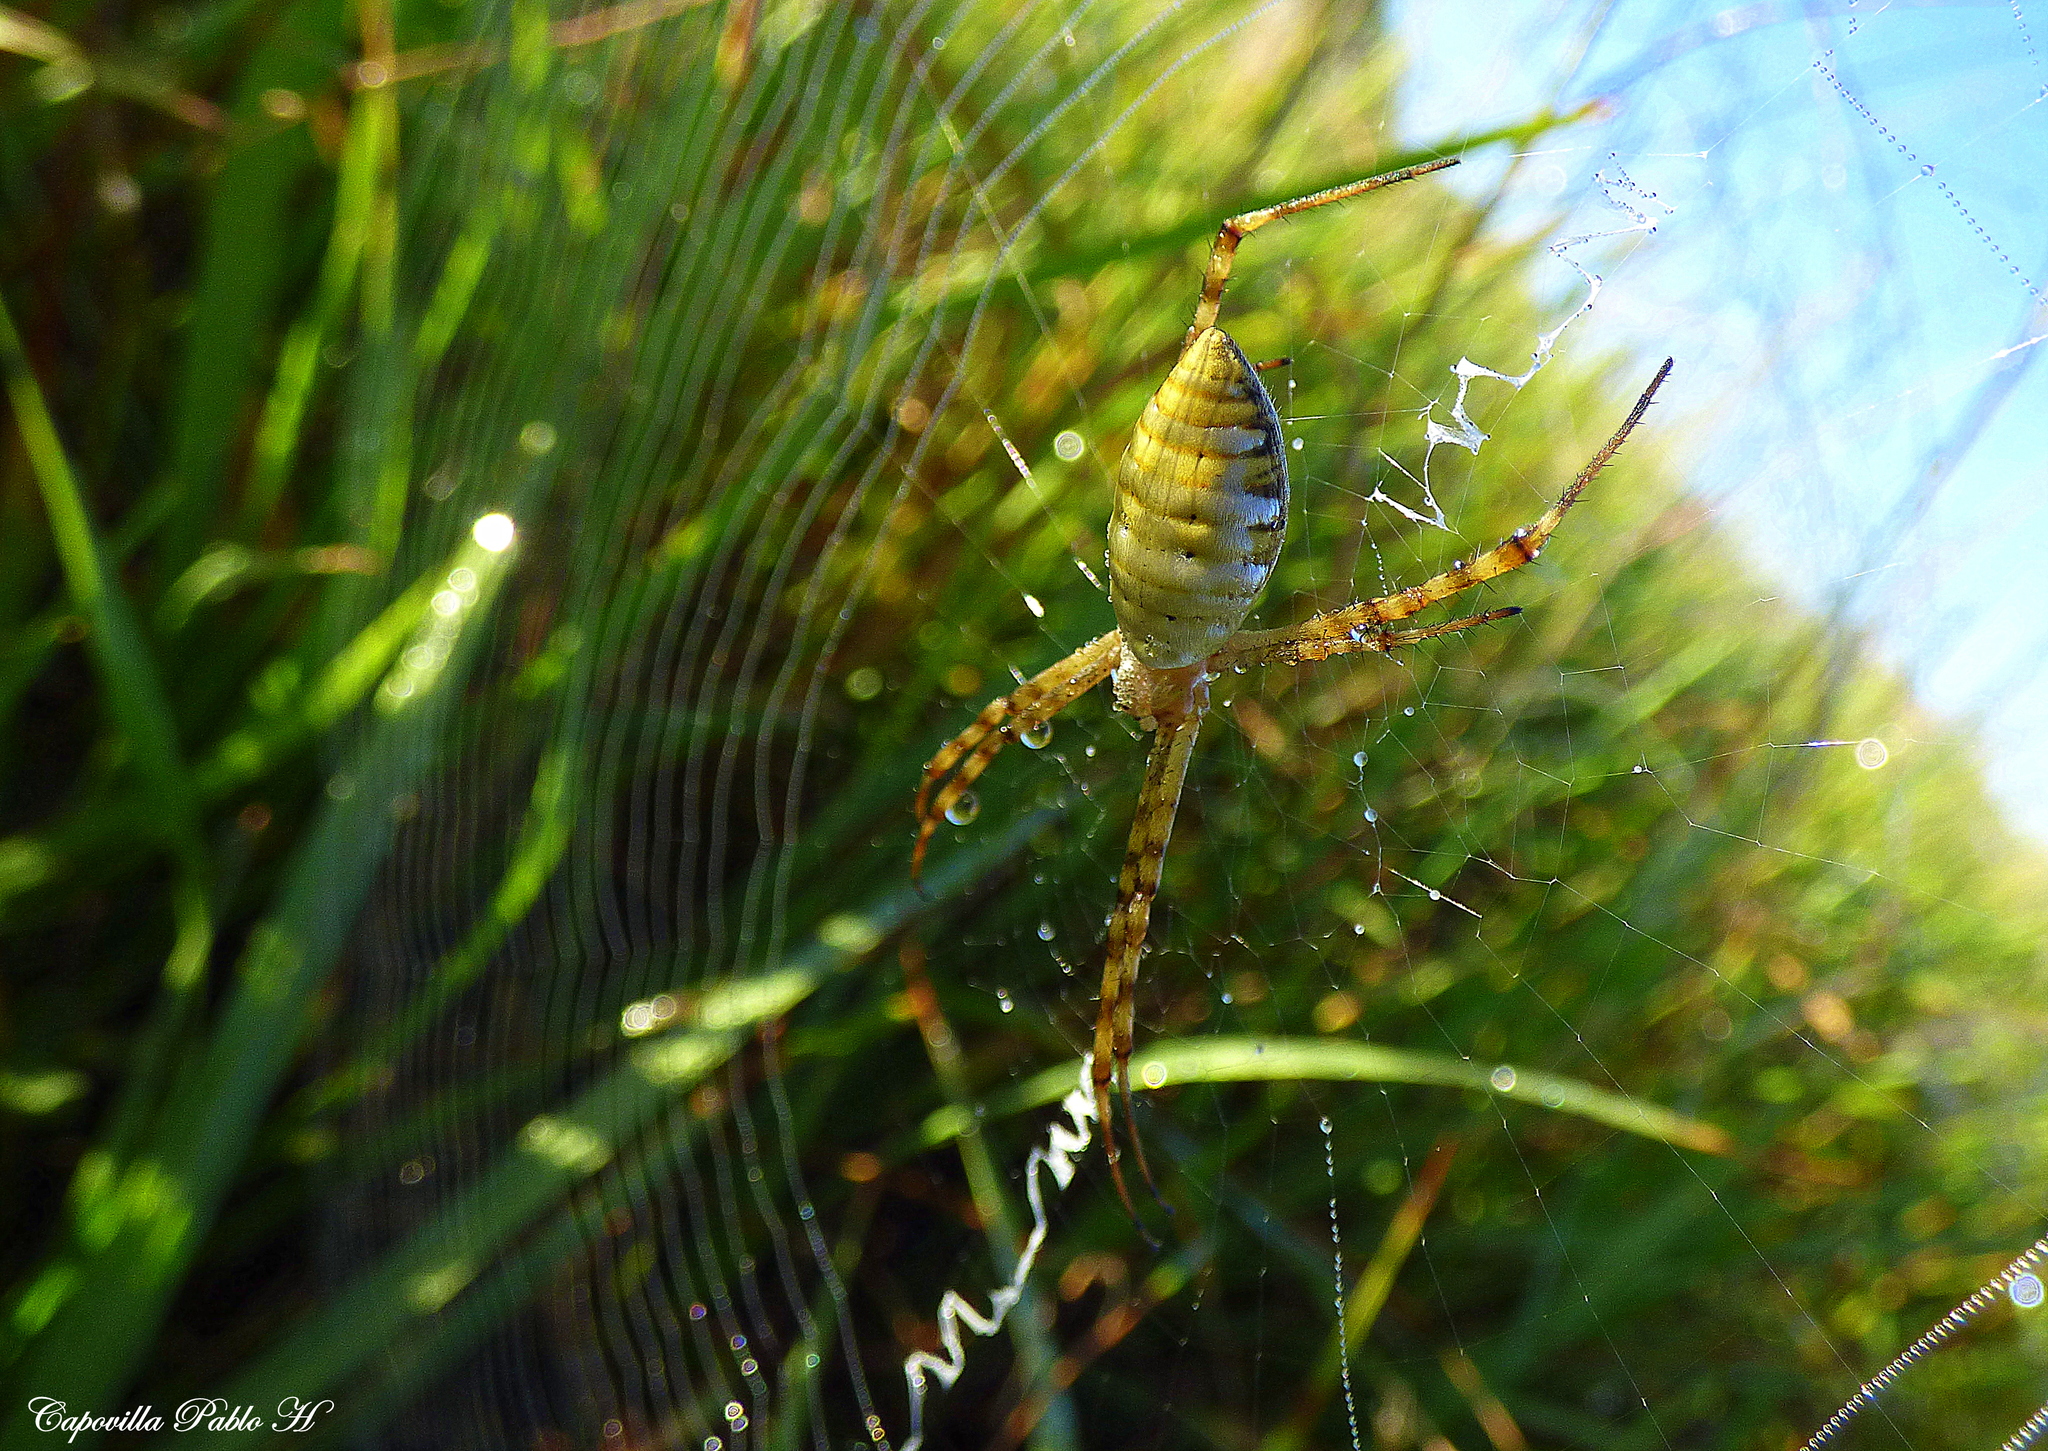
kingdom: Animalia
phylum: Arthropoda
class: Arachnida
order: Araneae
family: Araneidae
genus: Argiope
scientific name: Argiope trifasciata
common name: Banded garden spider
